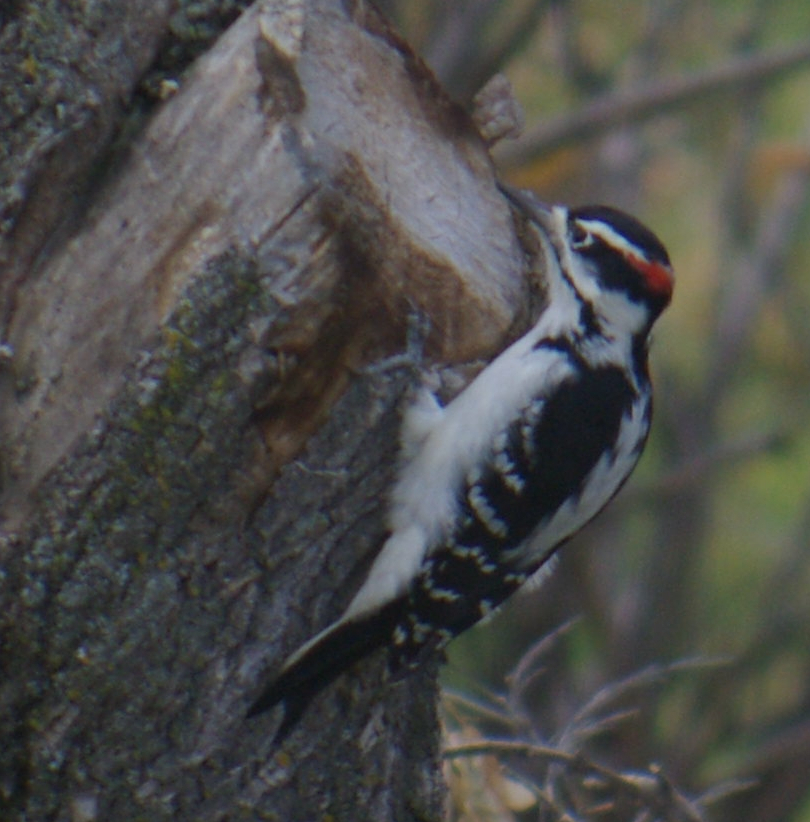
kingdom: Animalia
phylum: Chordata
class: Aves
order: Piciformes
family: Picidae
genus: Leuconotopicus
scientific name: Leuconotopicus villosus
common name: Hairy woodpecker
